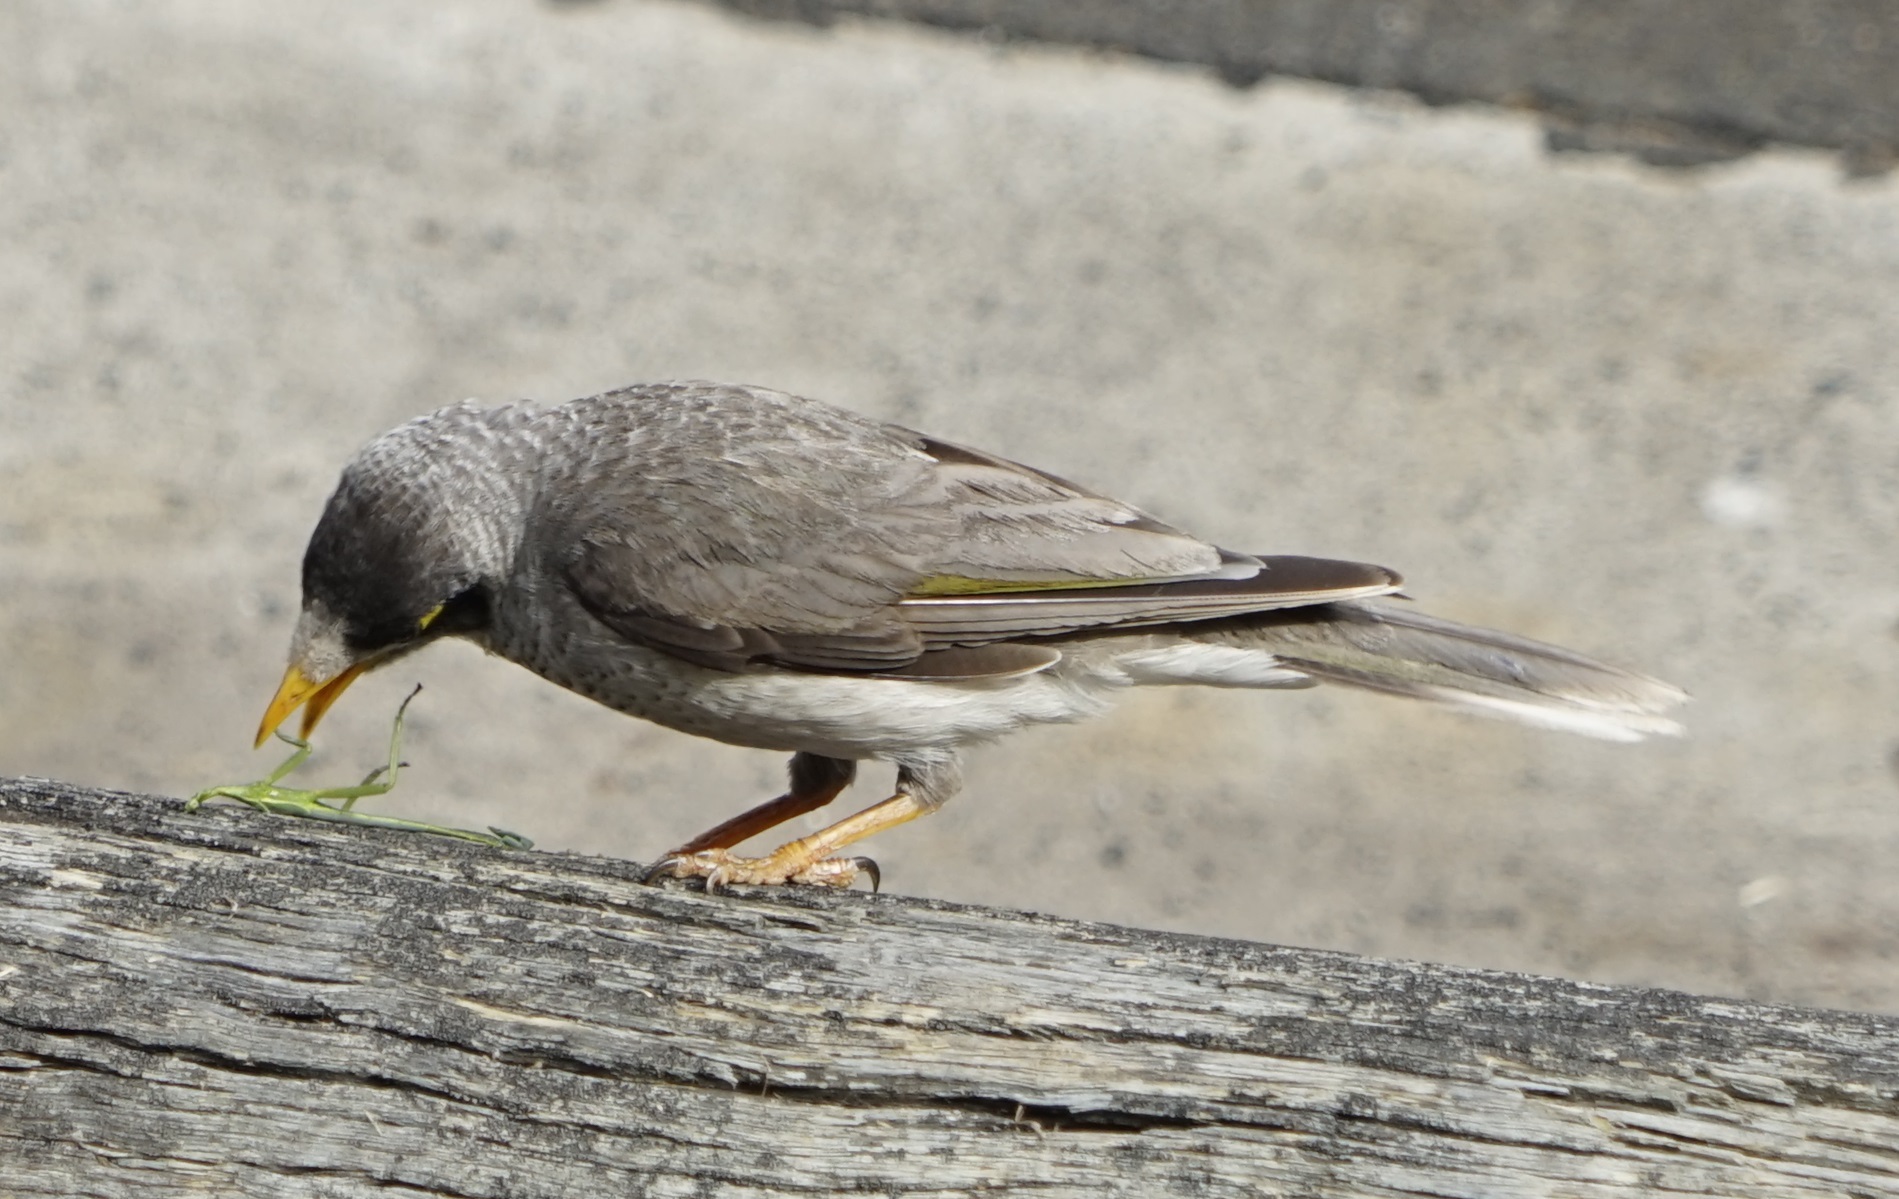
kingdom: Animalia
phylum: Arthropoda
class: Insecta
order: Phasmida
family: Phasmatidae
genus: Didymuria
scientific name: Didymuria violescens
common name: Spur-legged stick-insect
